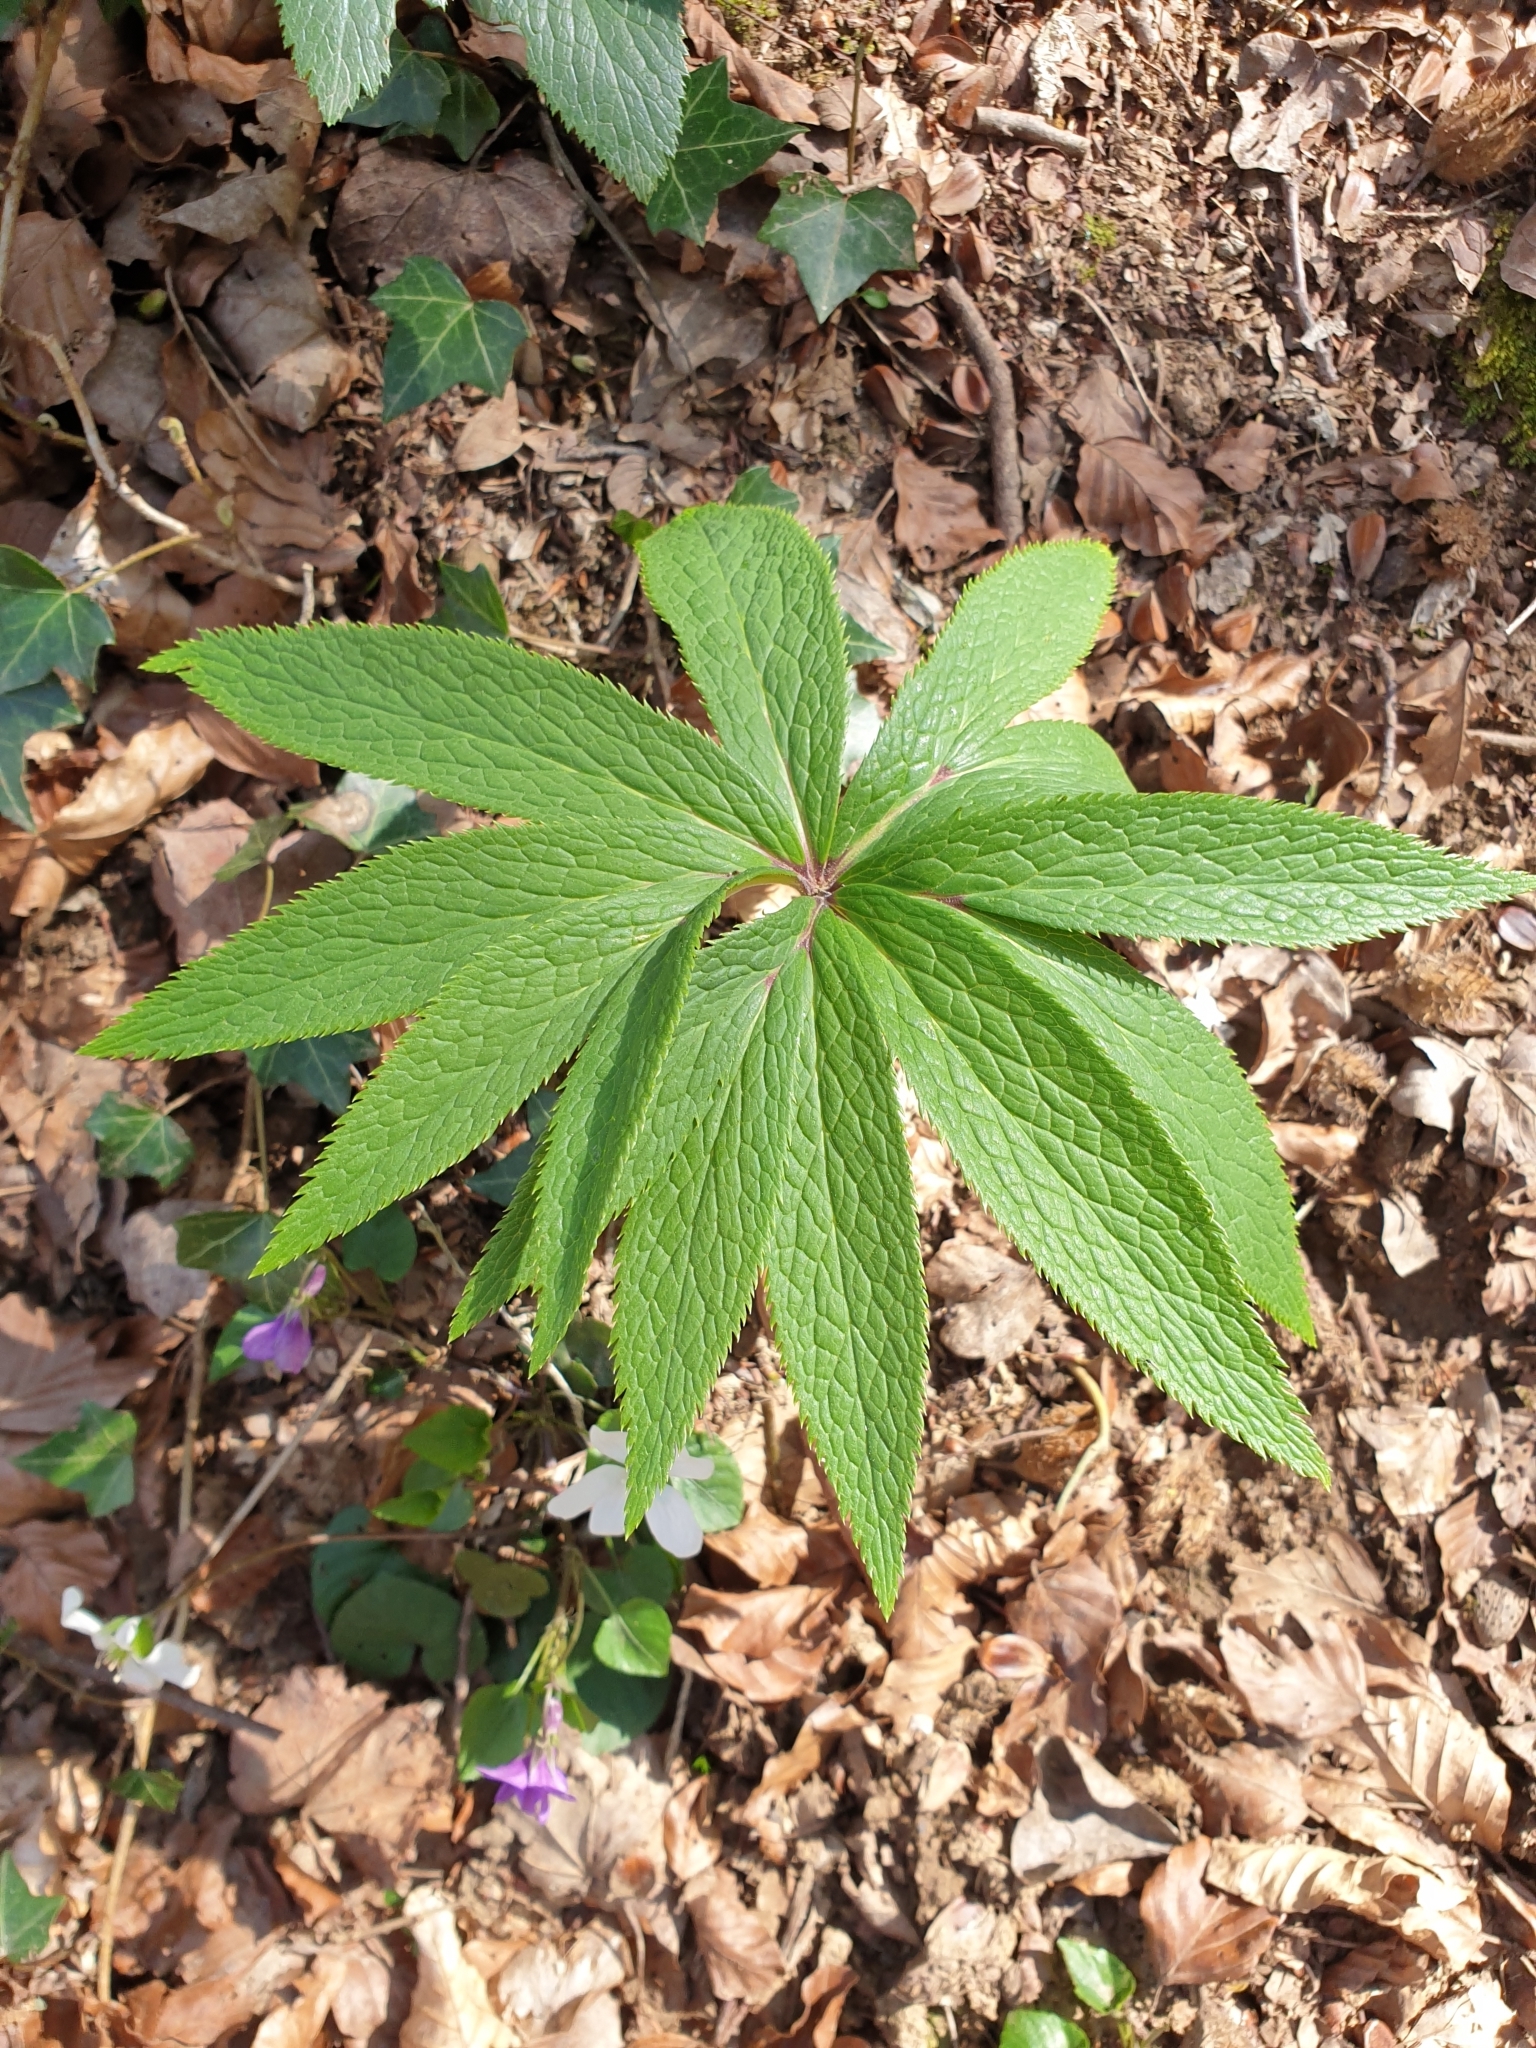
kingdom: Plantae
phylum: Tracheophyta
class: Magnoliopsida
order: Ranunculales
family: Ranunculaceae
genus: Helleborus
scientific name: Helleborus viridis
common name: Green hellebore
